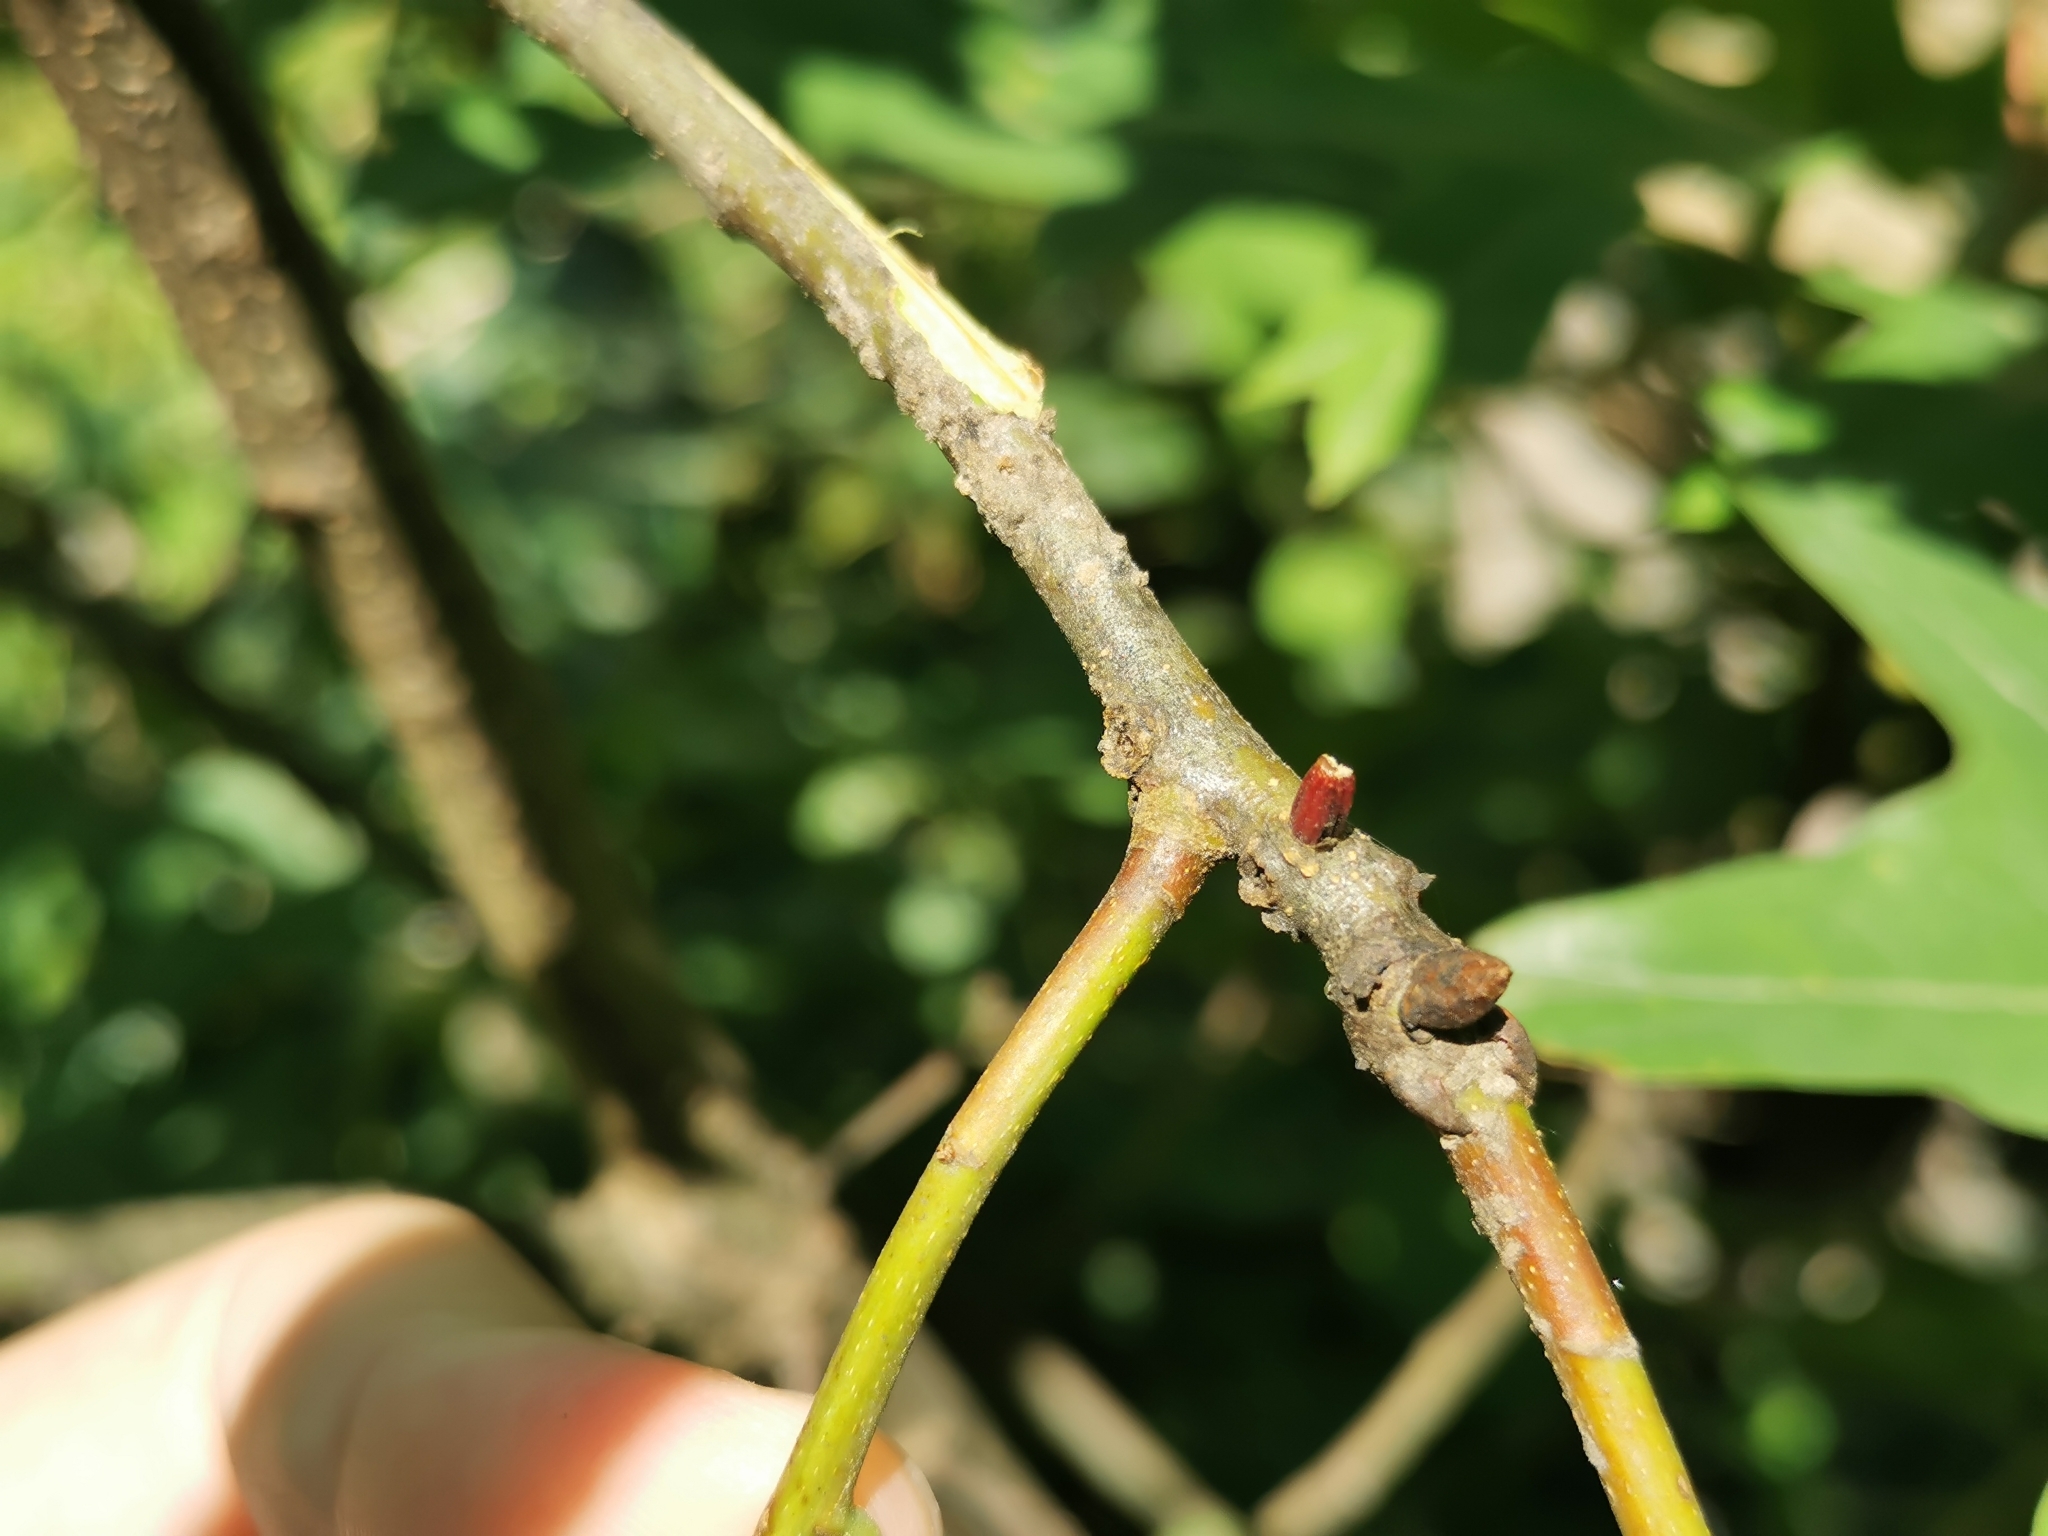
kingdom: Animalia
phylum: Arthropoda
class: Insecta
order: Hymenoptera
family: Cynipidae
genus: Callirhytis
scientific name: Callirhytis
